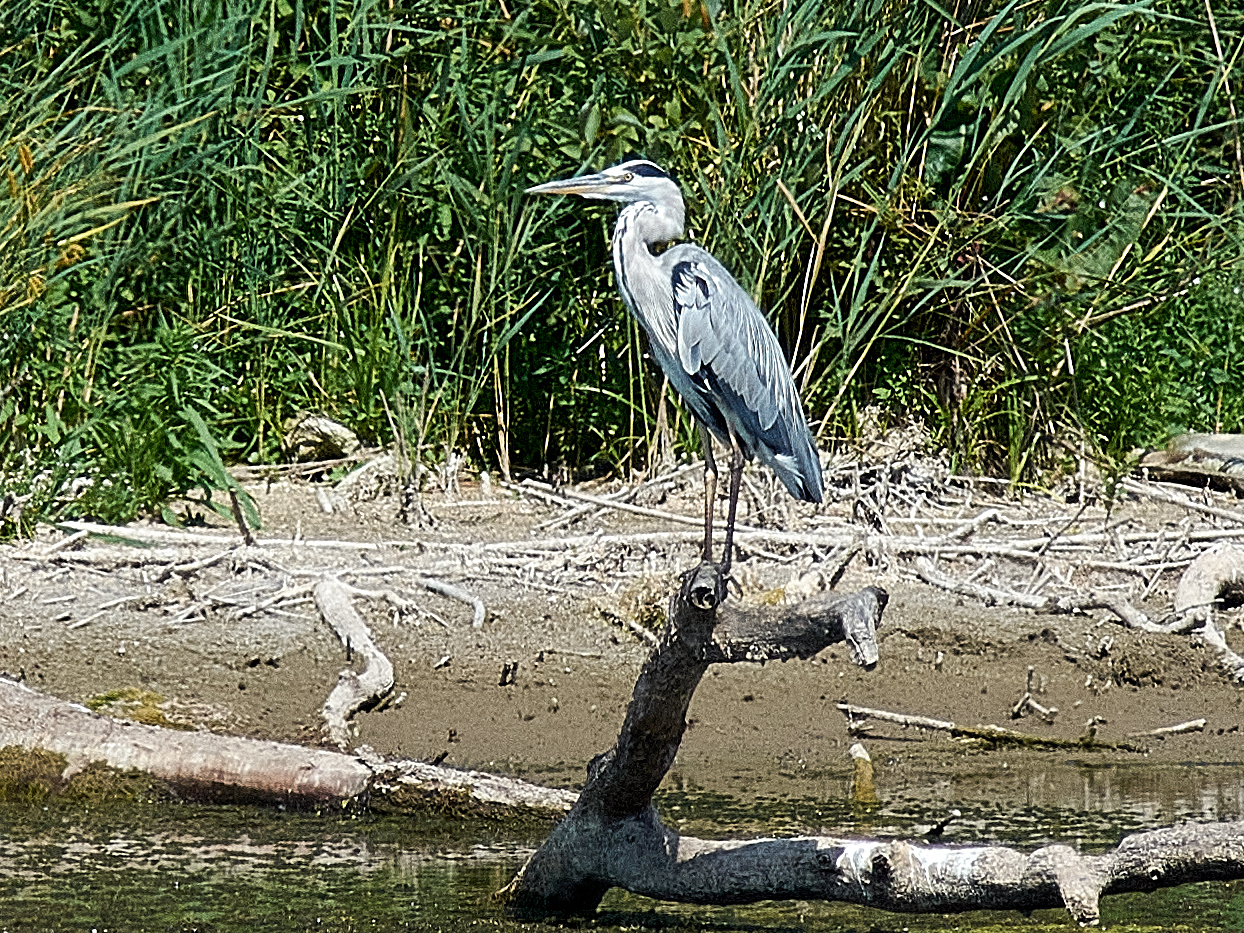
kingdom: Animalia
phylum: Chordata
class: Aves
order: Pelecaniformes
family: Ardeidae
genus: Ardea
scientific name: Ardea cinerea
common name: Grey heron
